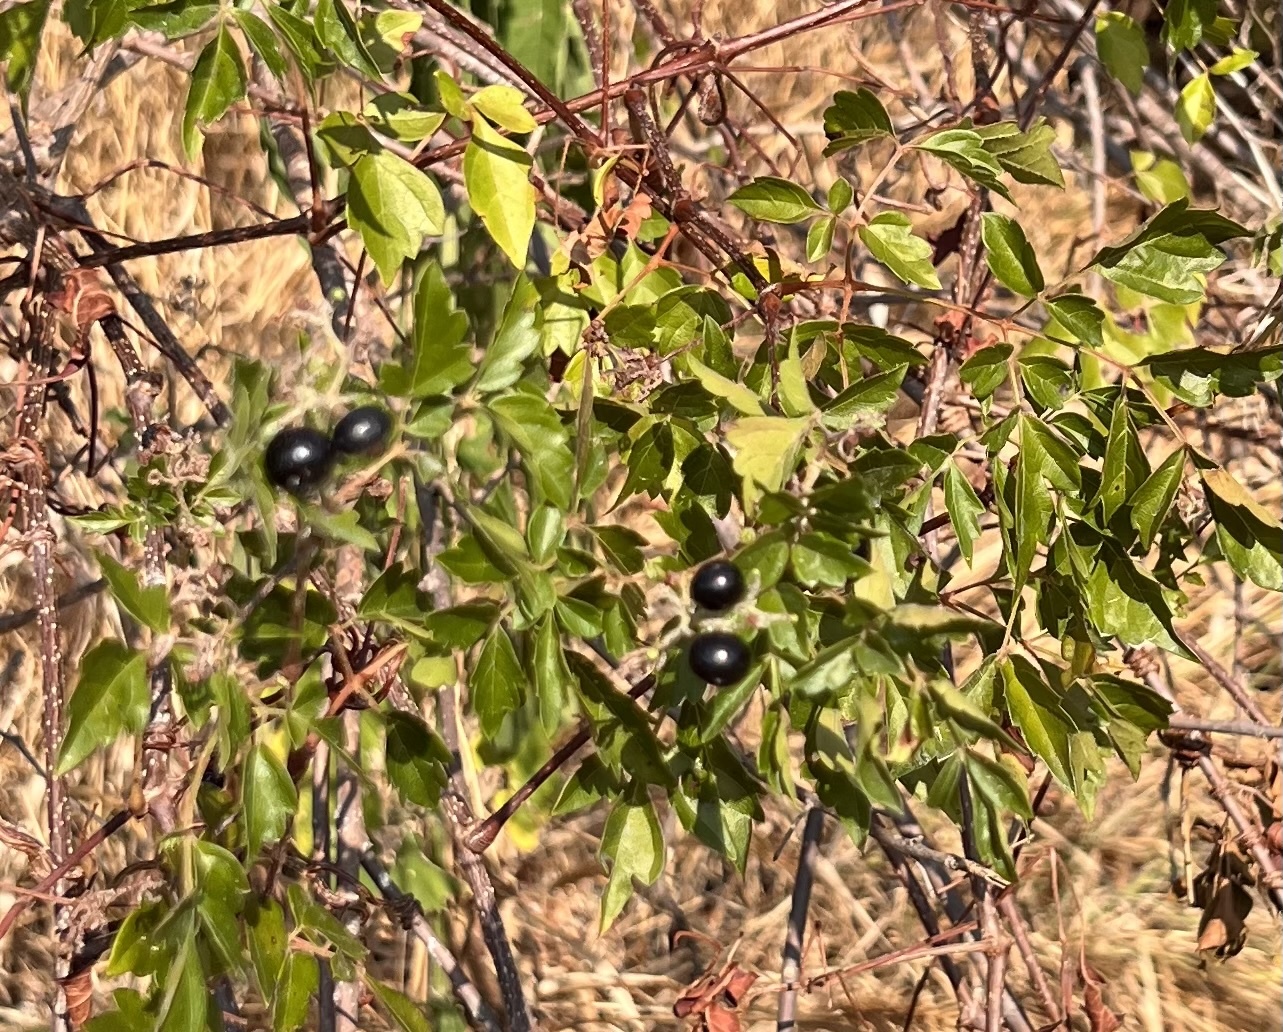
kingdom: Plantae
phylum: Tracheophyta
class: Magnoliopsida
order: Vitales
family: Vitaceae
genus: Nekemias
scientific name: Nekemias arborea
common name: Peppervine
